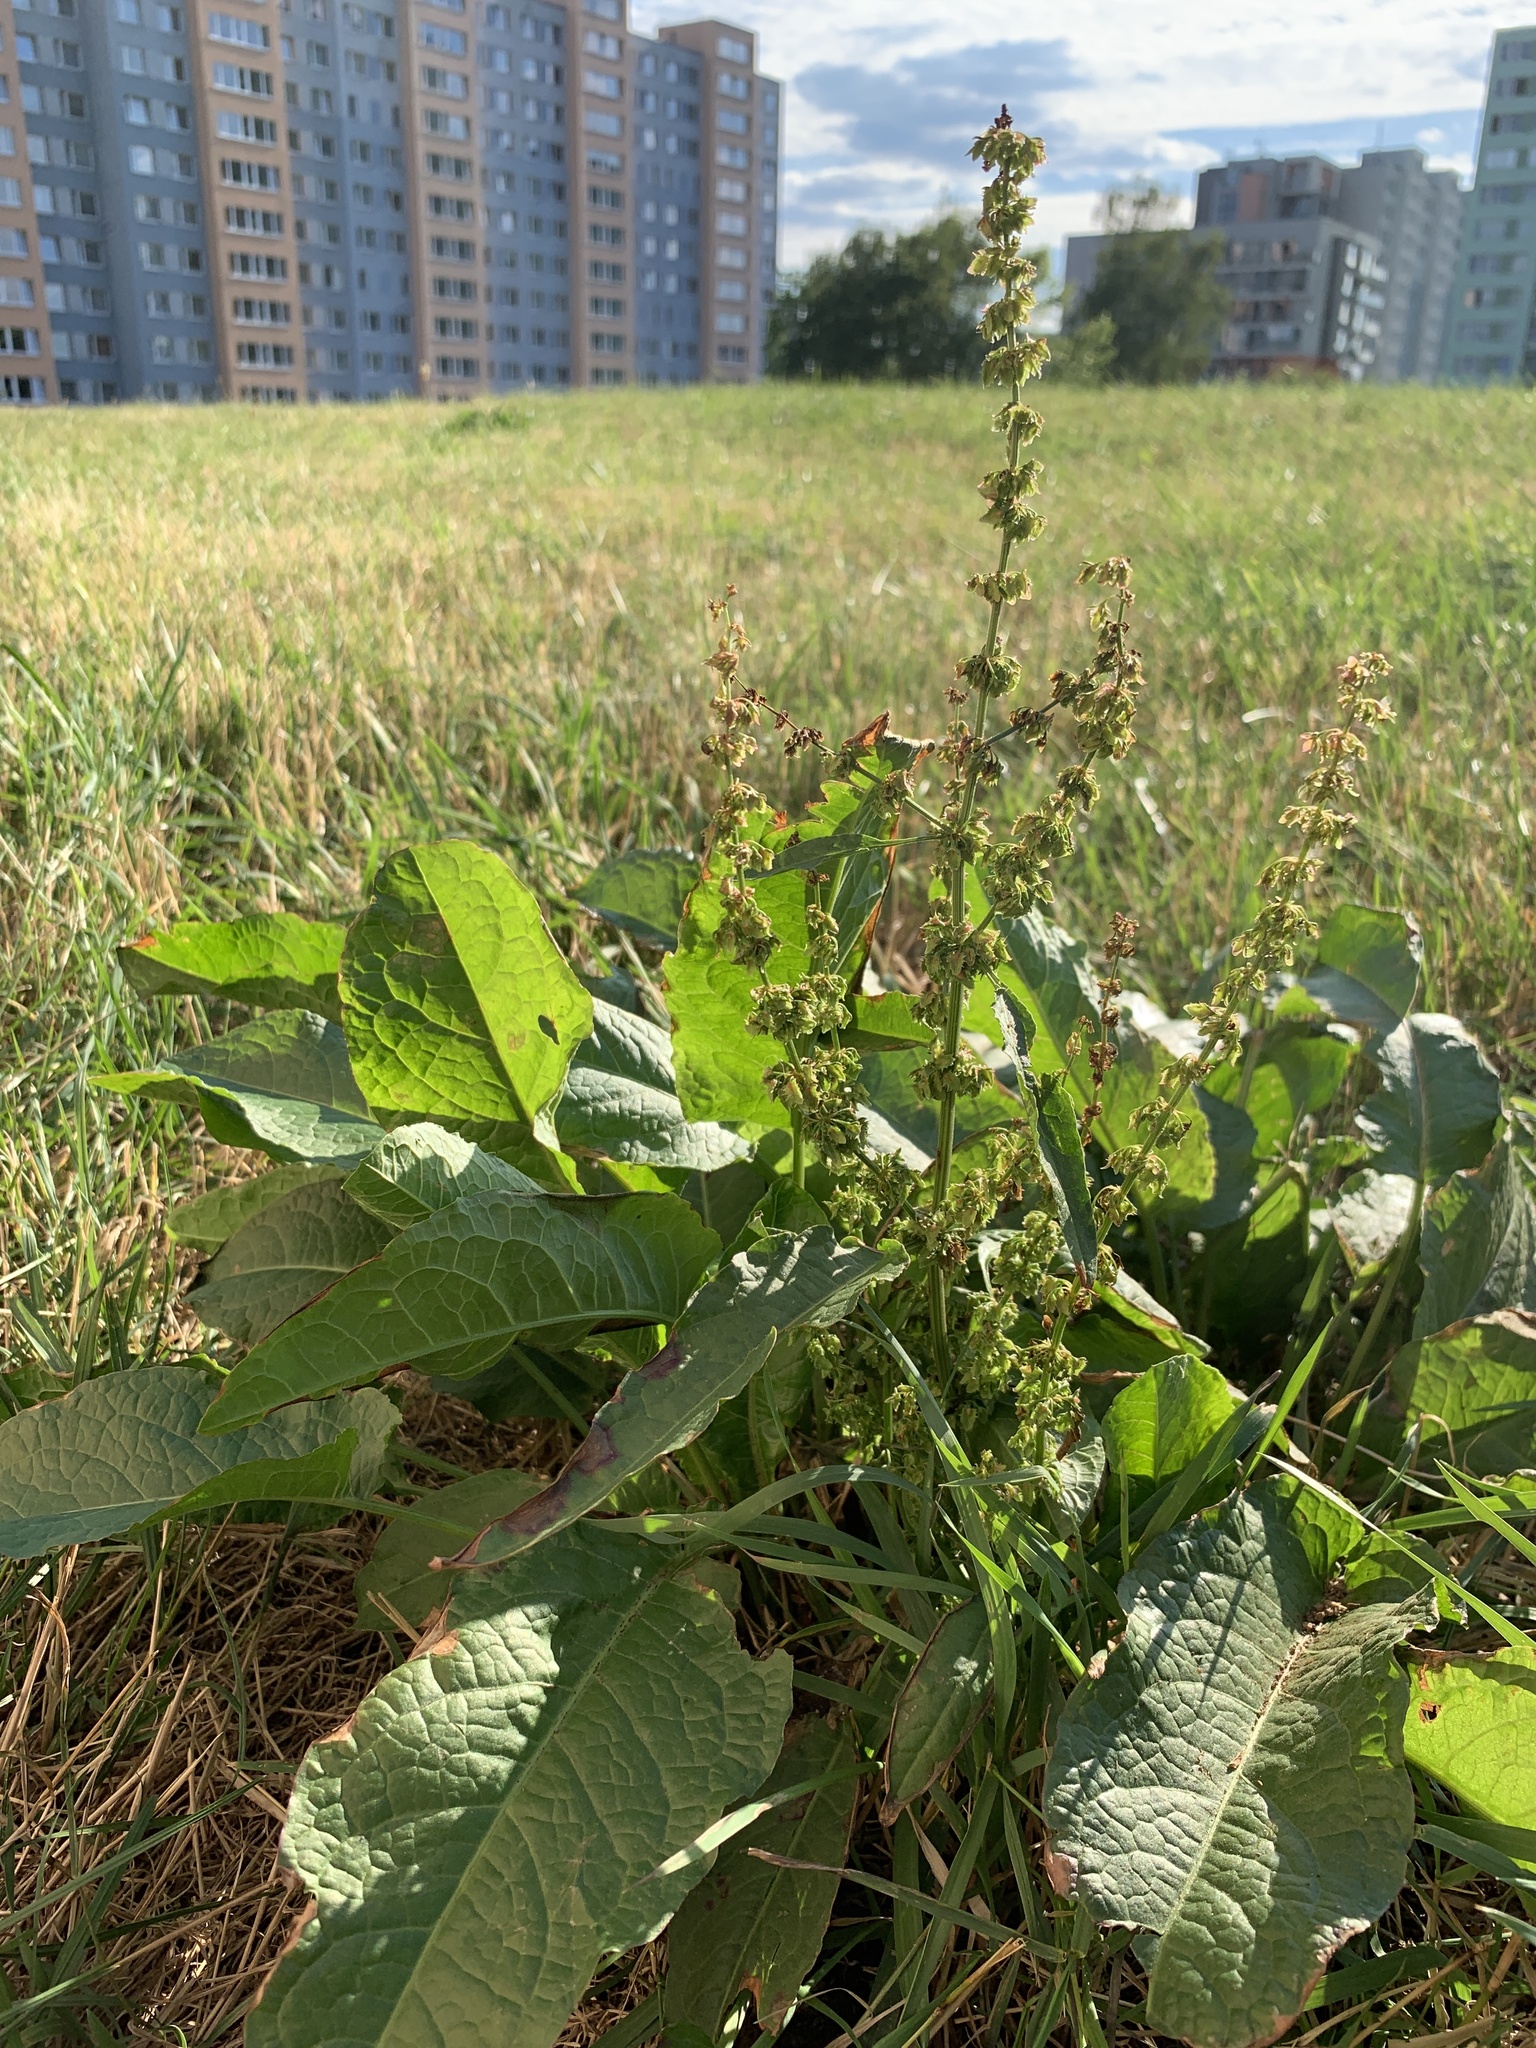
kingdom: Plantae
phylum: Tracheophyta
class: Magnoliopsida
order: Caryophyllales
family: Polygonaceae
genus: Rumex
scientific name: Rumex obtusifolius
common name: Bitter dock
